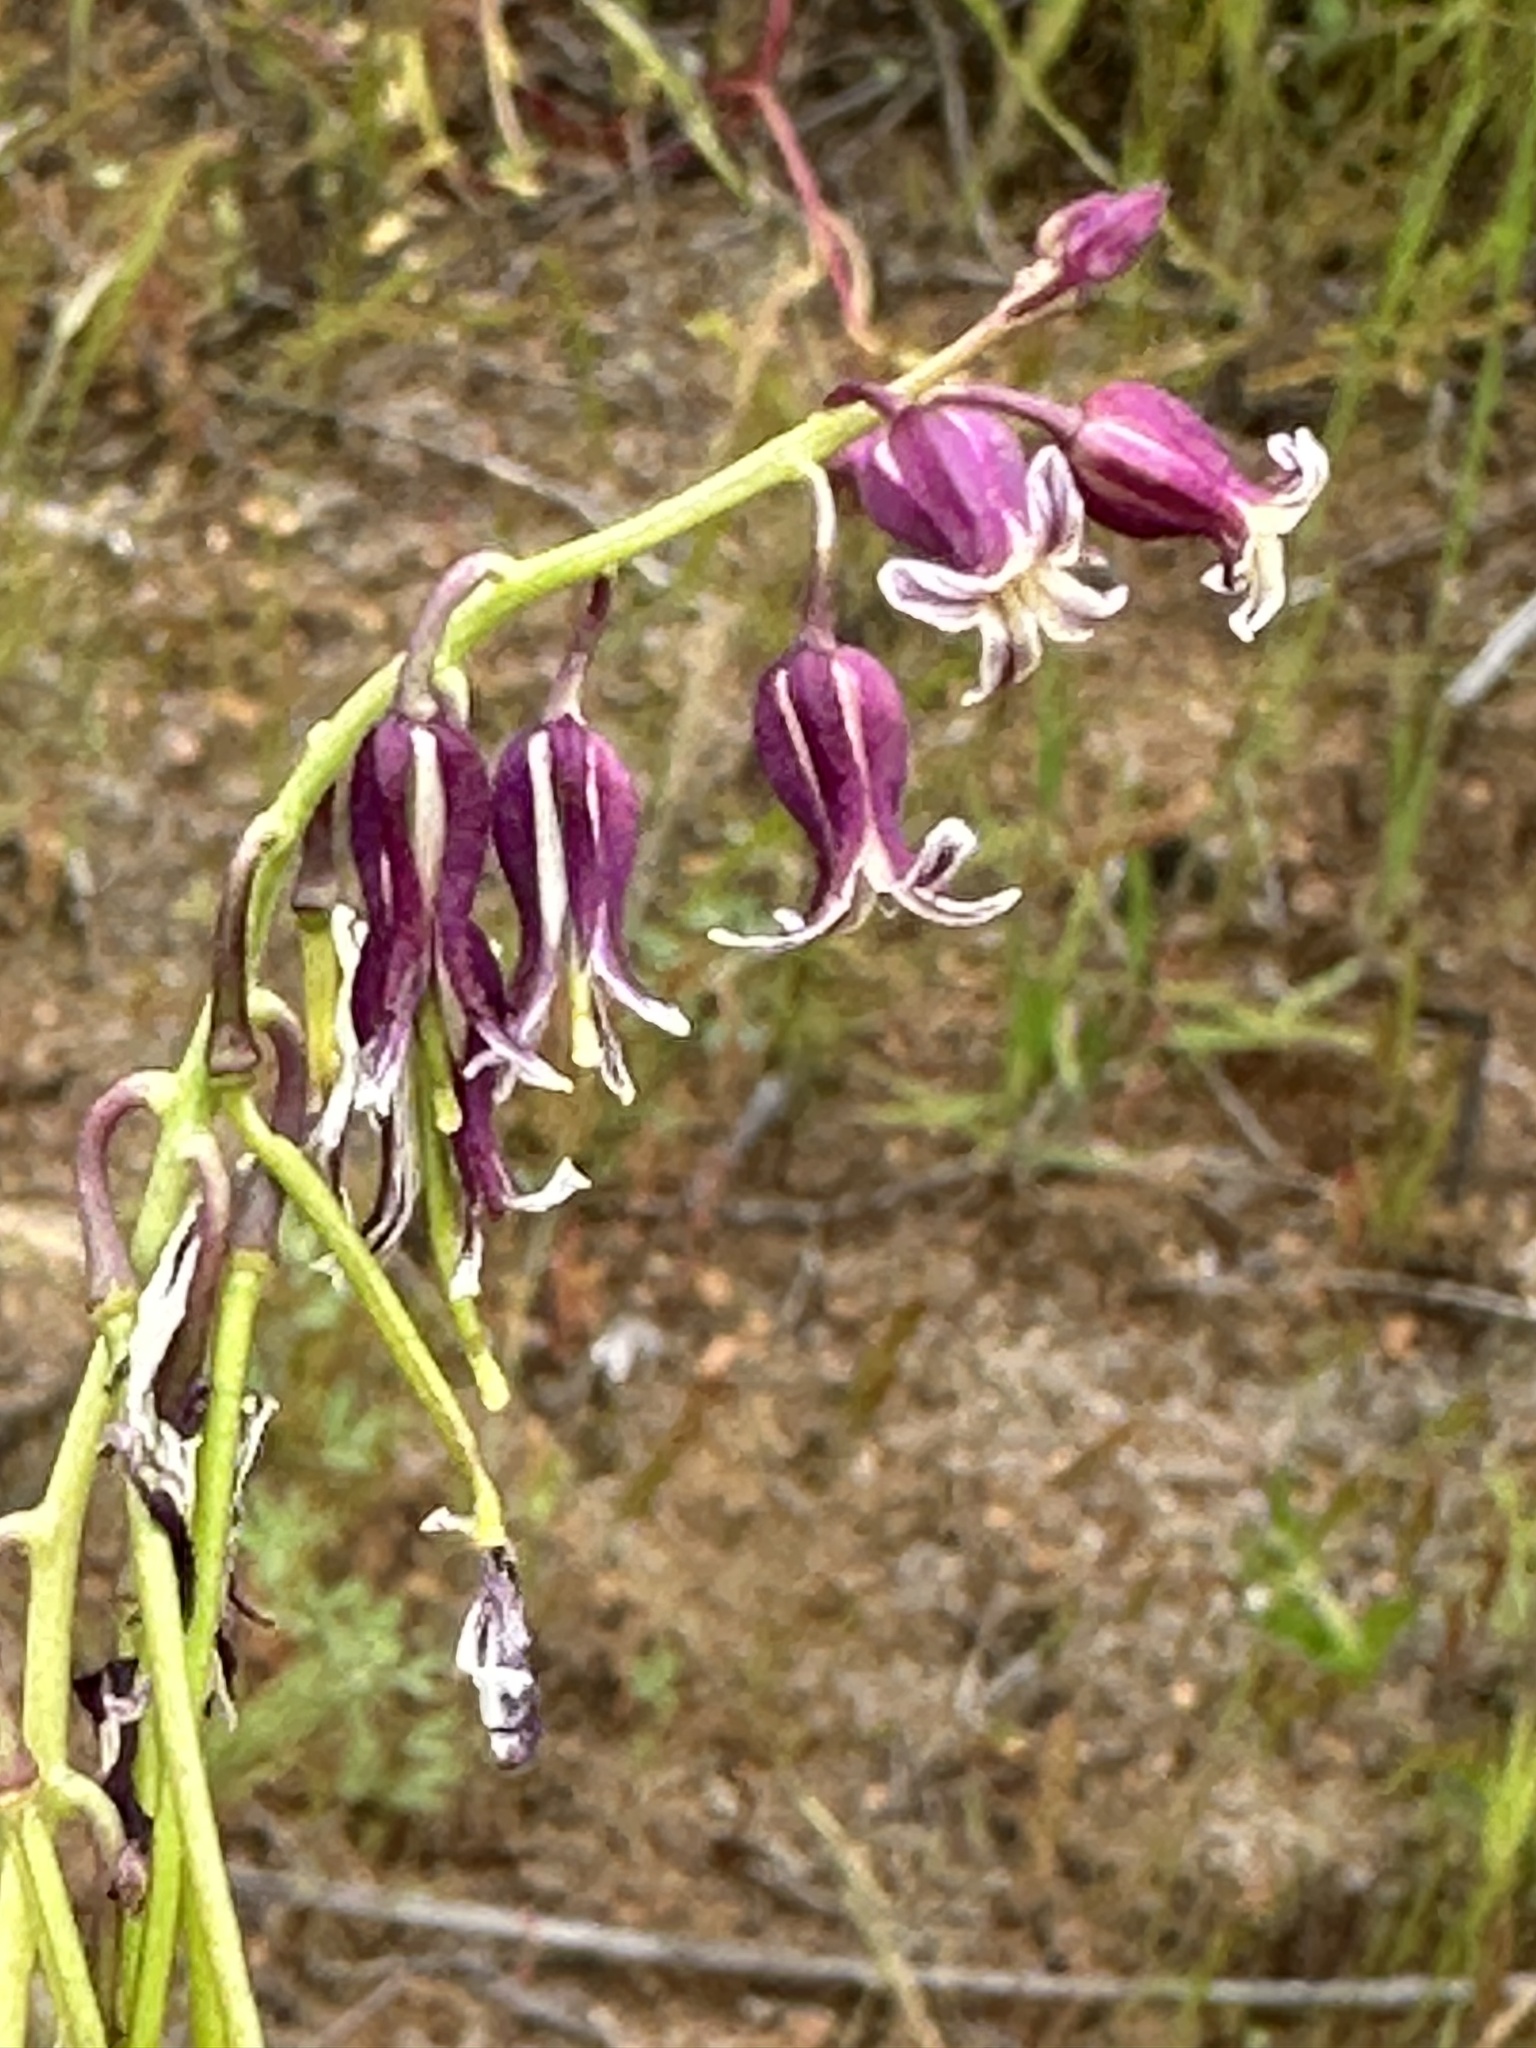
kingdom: Plantae
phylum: Tracheophyta
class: Magnoliopsida
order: Brassicales
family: Brassicaceae
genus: Streptanthus
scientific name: Streptanthus heterophyllus
